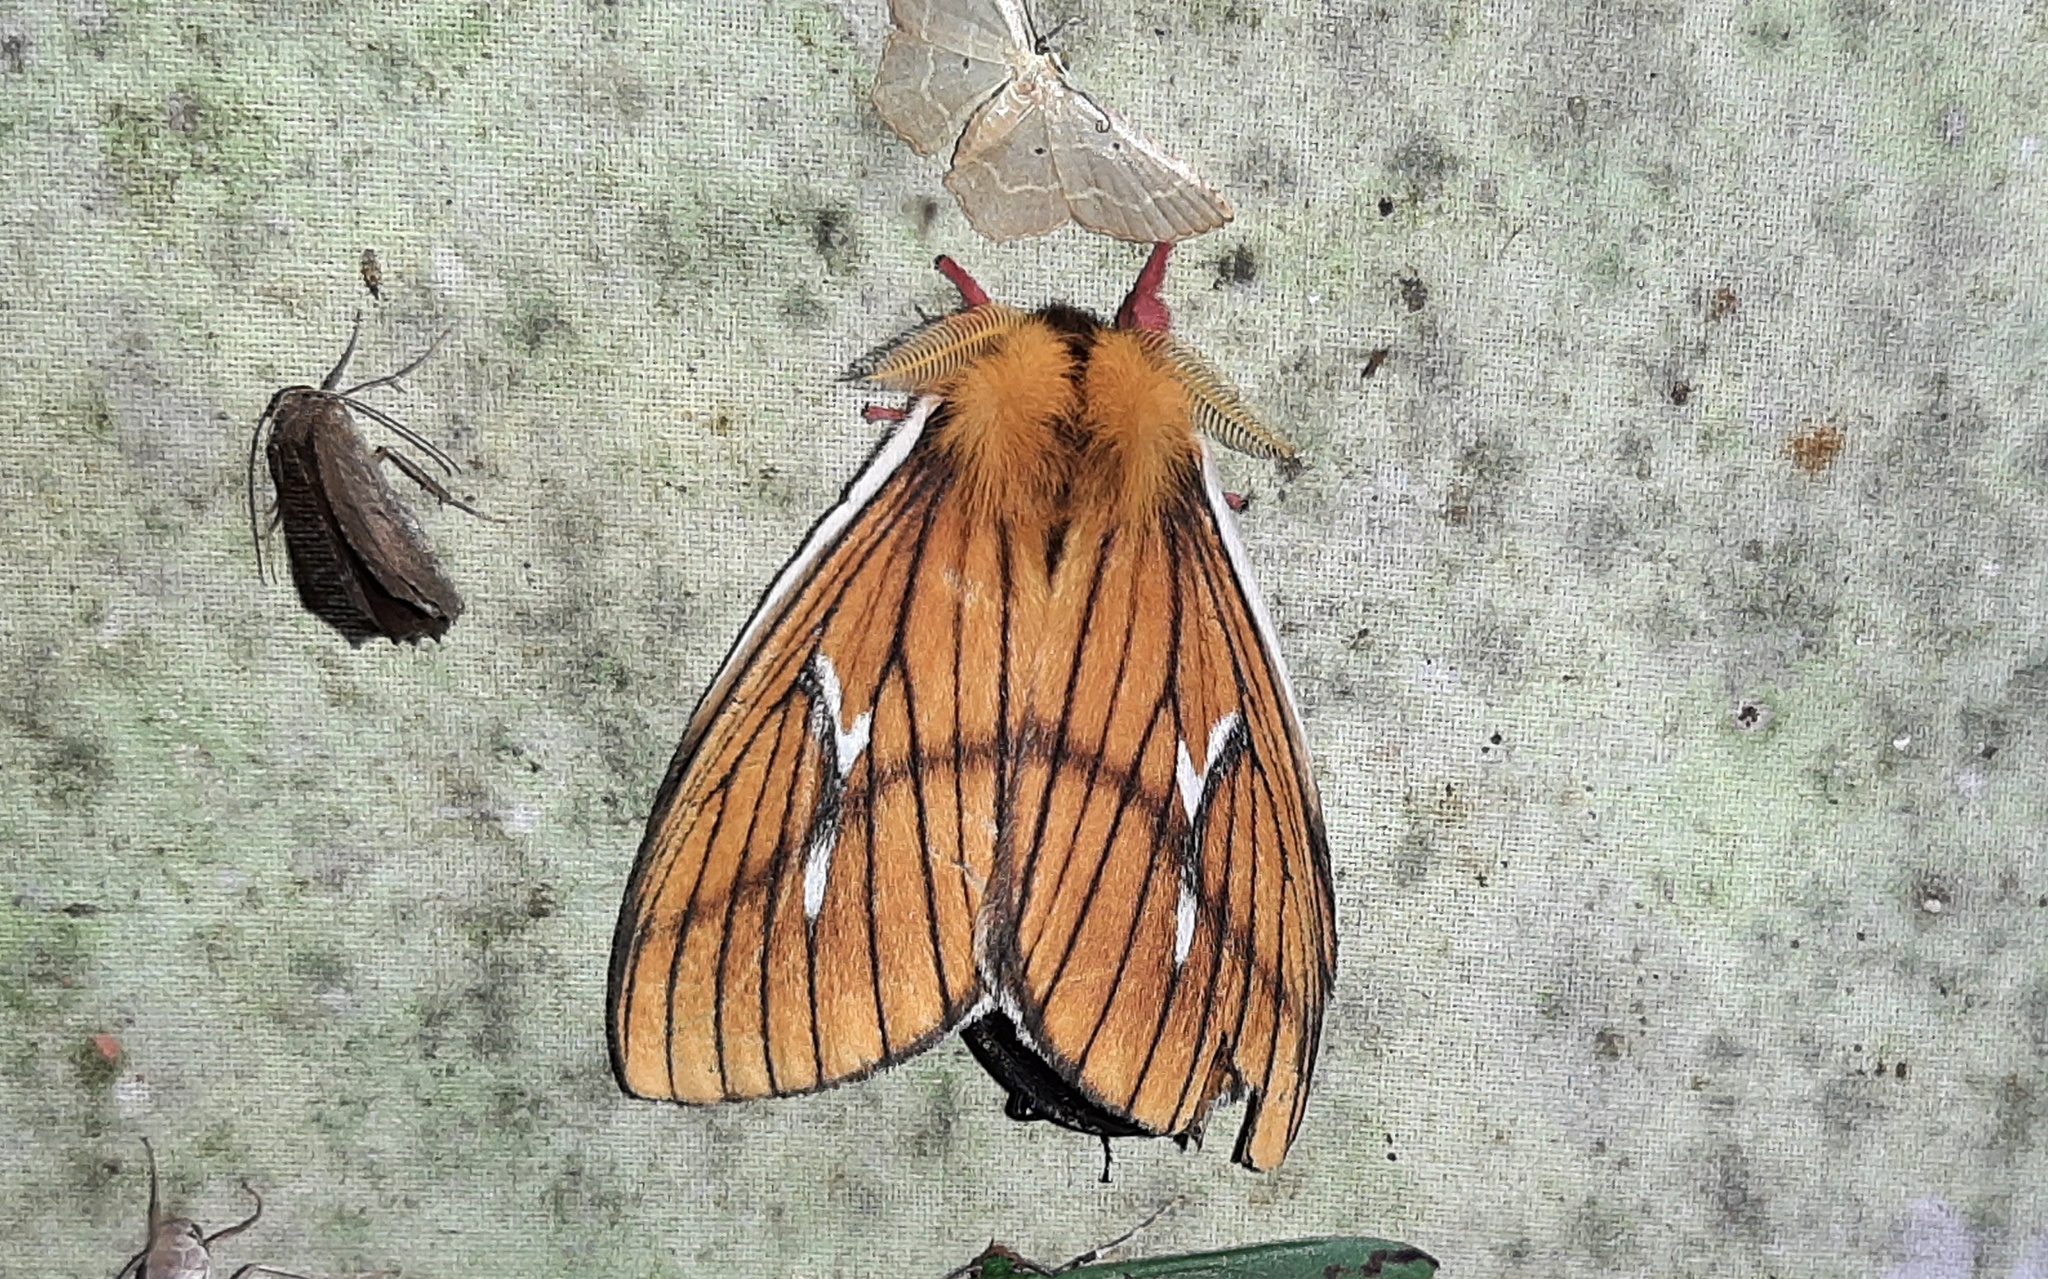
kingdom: Animalia
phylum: Arthropoda
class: Insecta
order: Lepidoptera
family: Saturniidae
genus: Cerodirphia
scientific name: Cerodirphia nadiana
